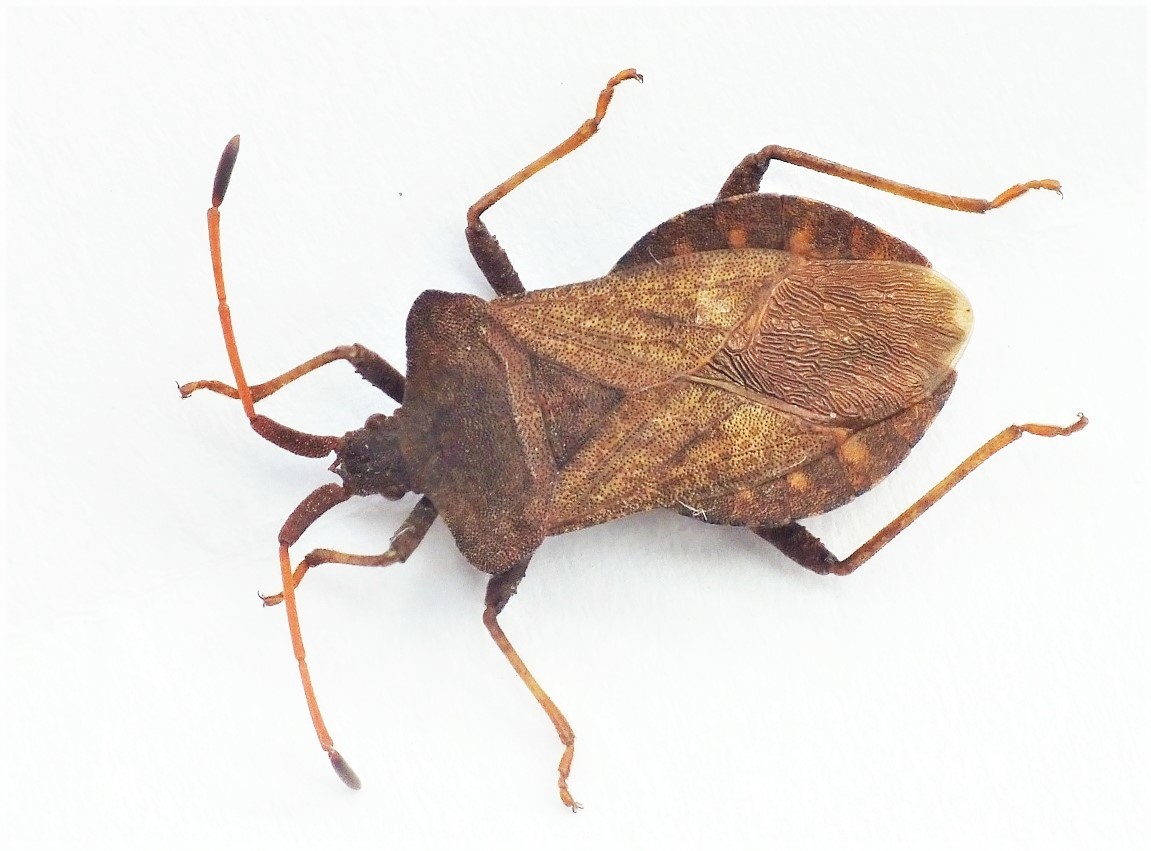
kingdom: Animalia
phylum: Arthropoda
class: Insecta
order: Hemiptera
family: Coreidae
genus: Coreus
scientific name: Coreus marginatus
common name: Dock bug
